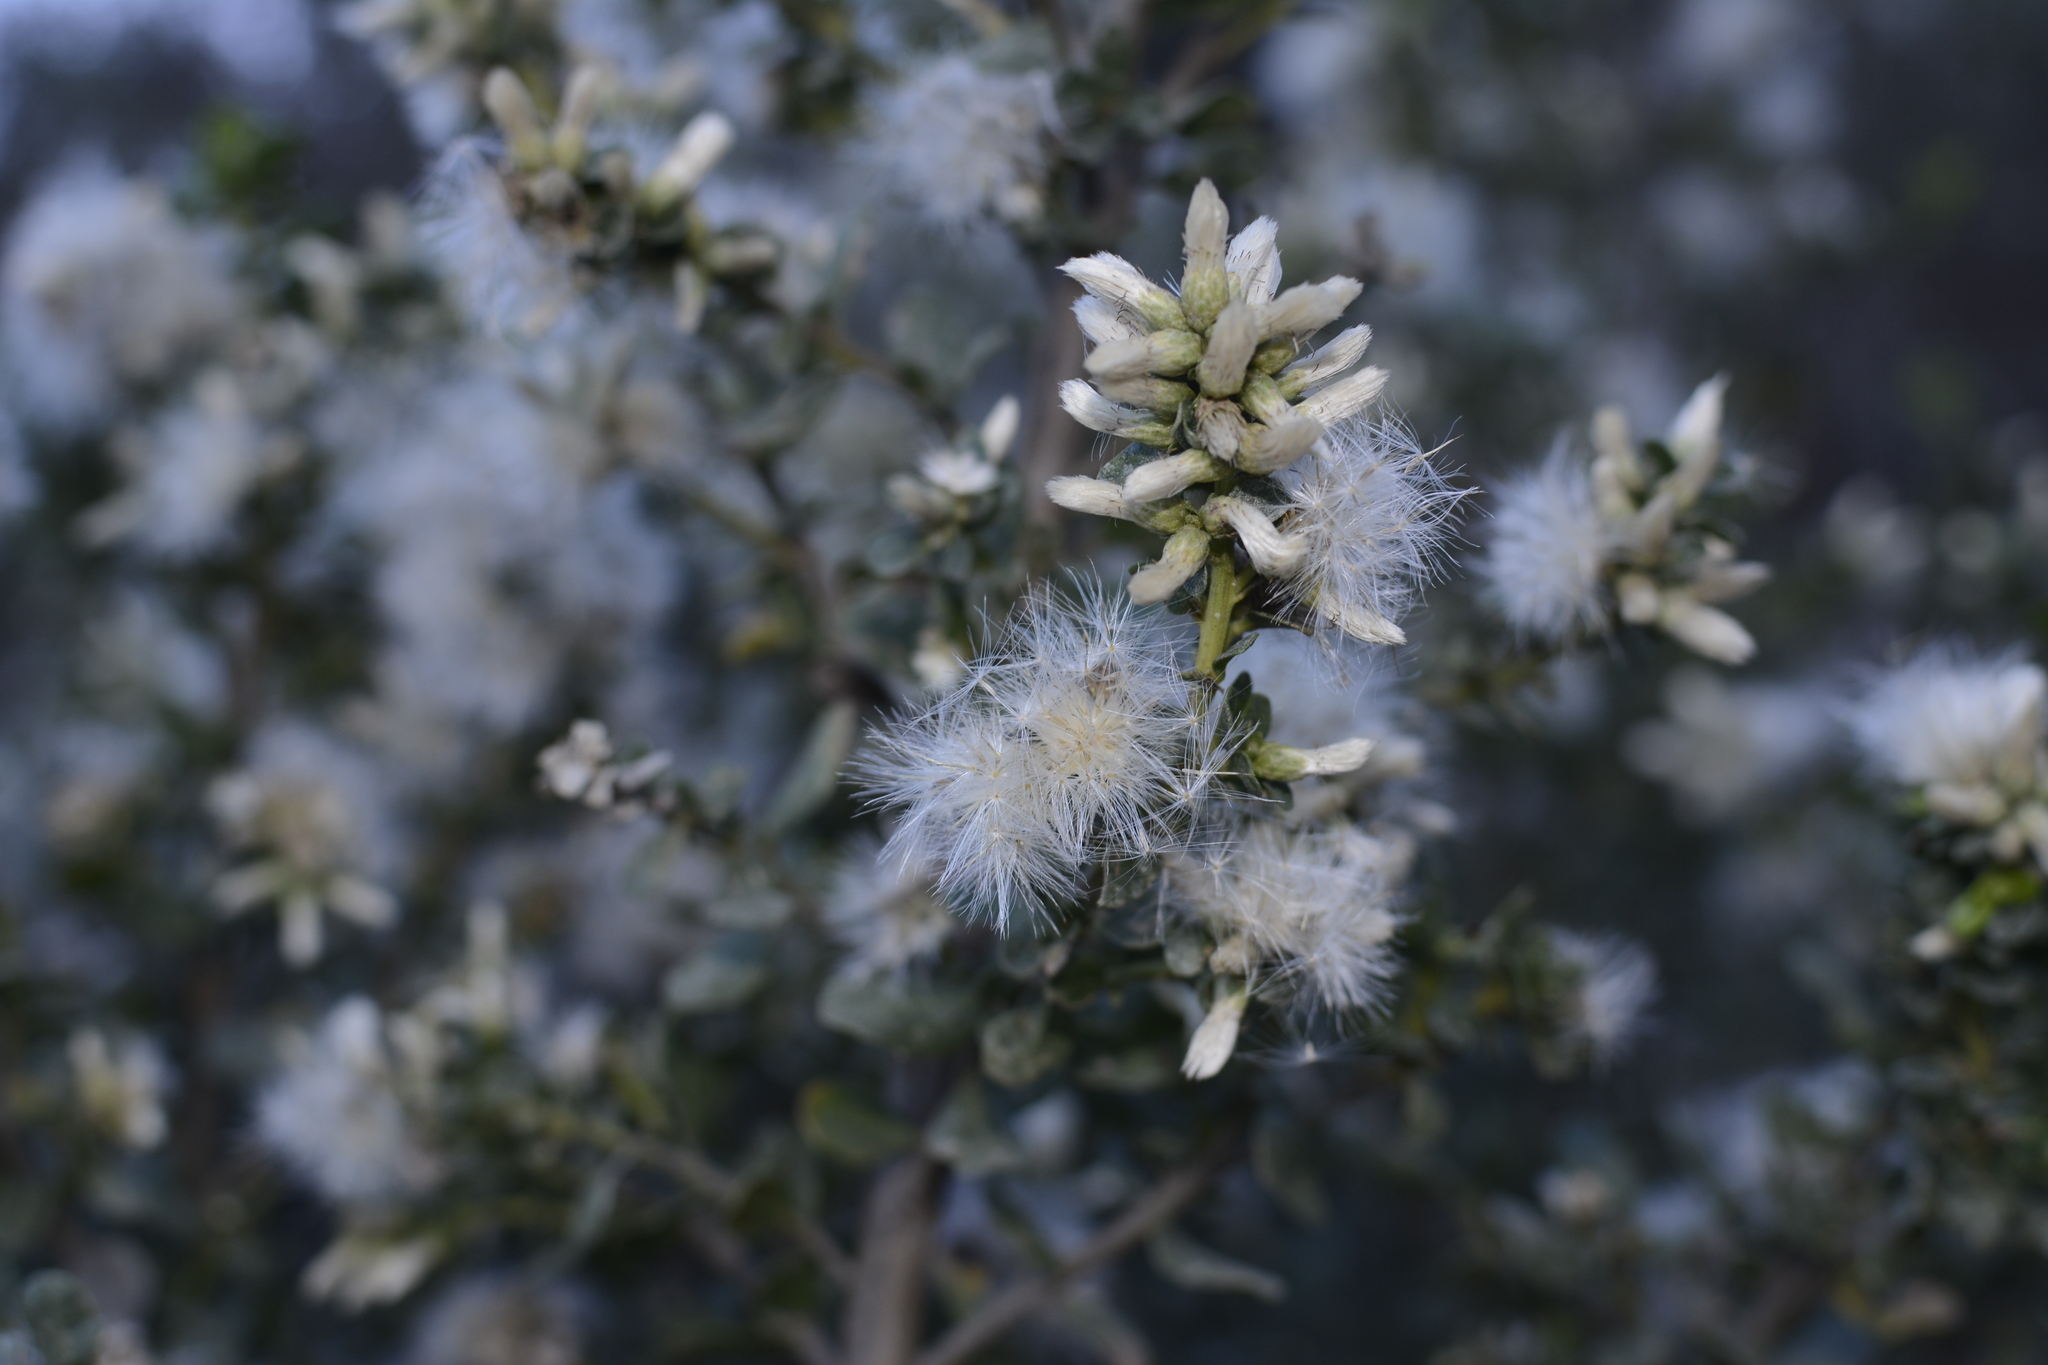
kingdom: Plantae
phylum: Tracheophyta
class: Magnoliopsida
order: Asterales
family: Asteraceae
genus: Baccharis
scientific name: Baccharis pilularis
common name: Coyotebrush
